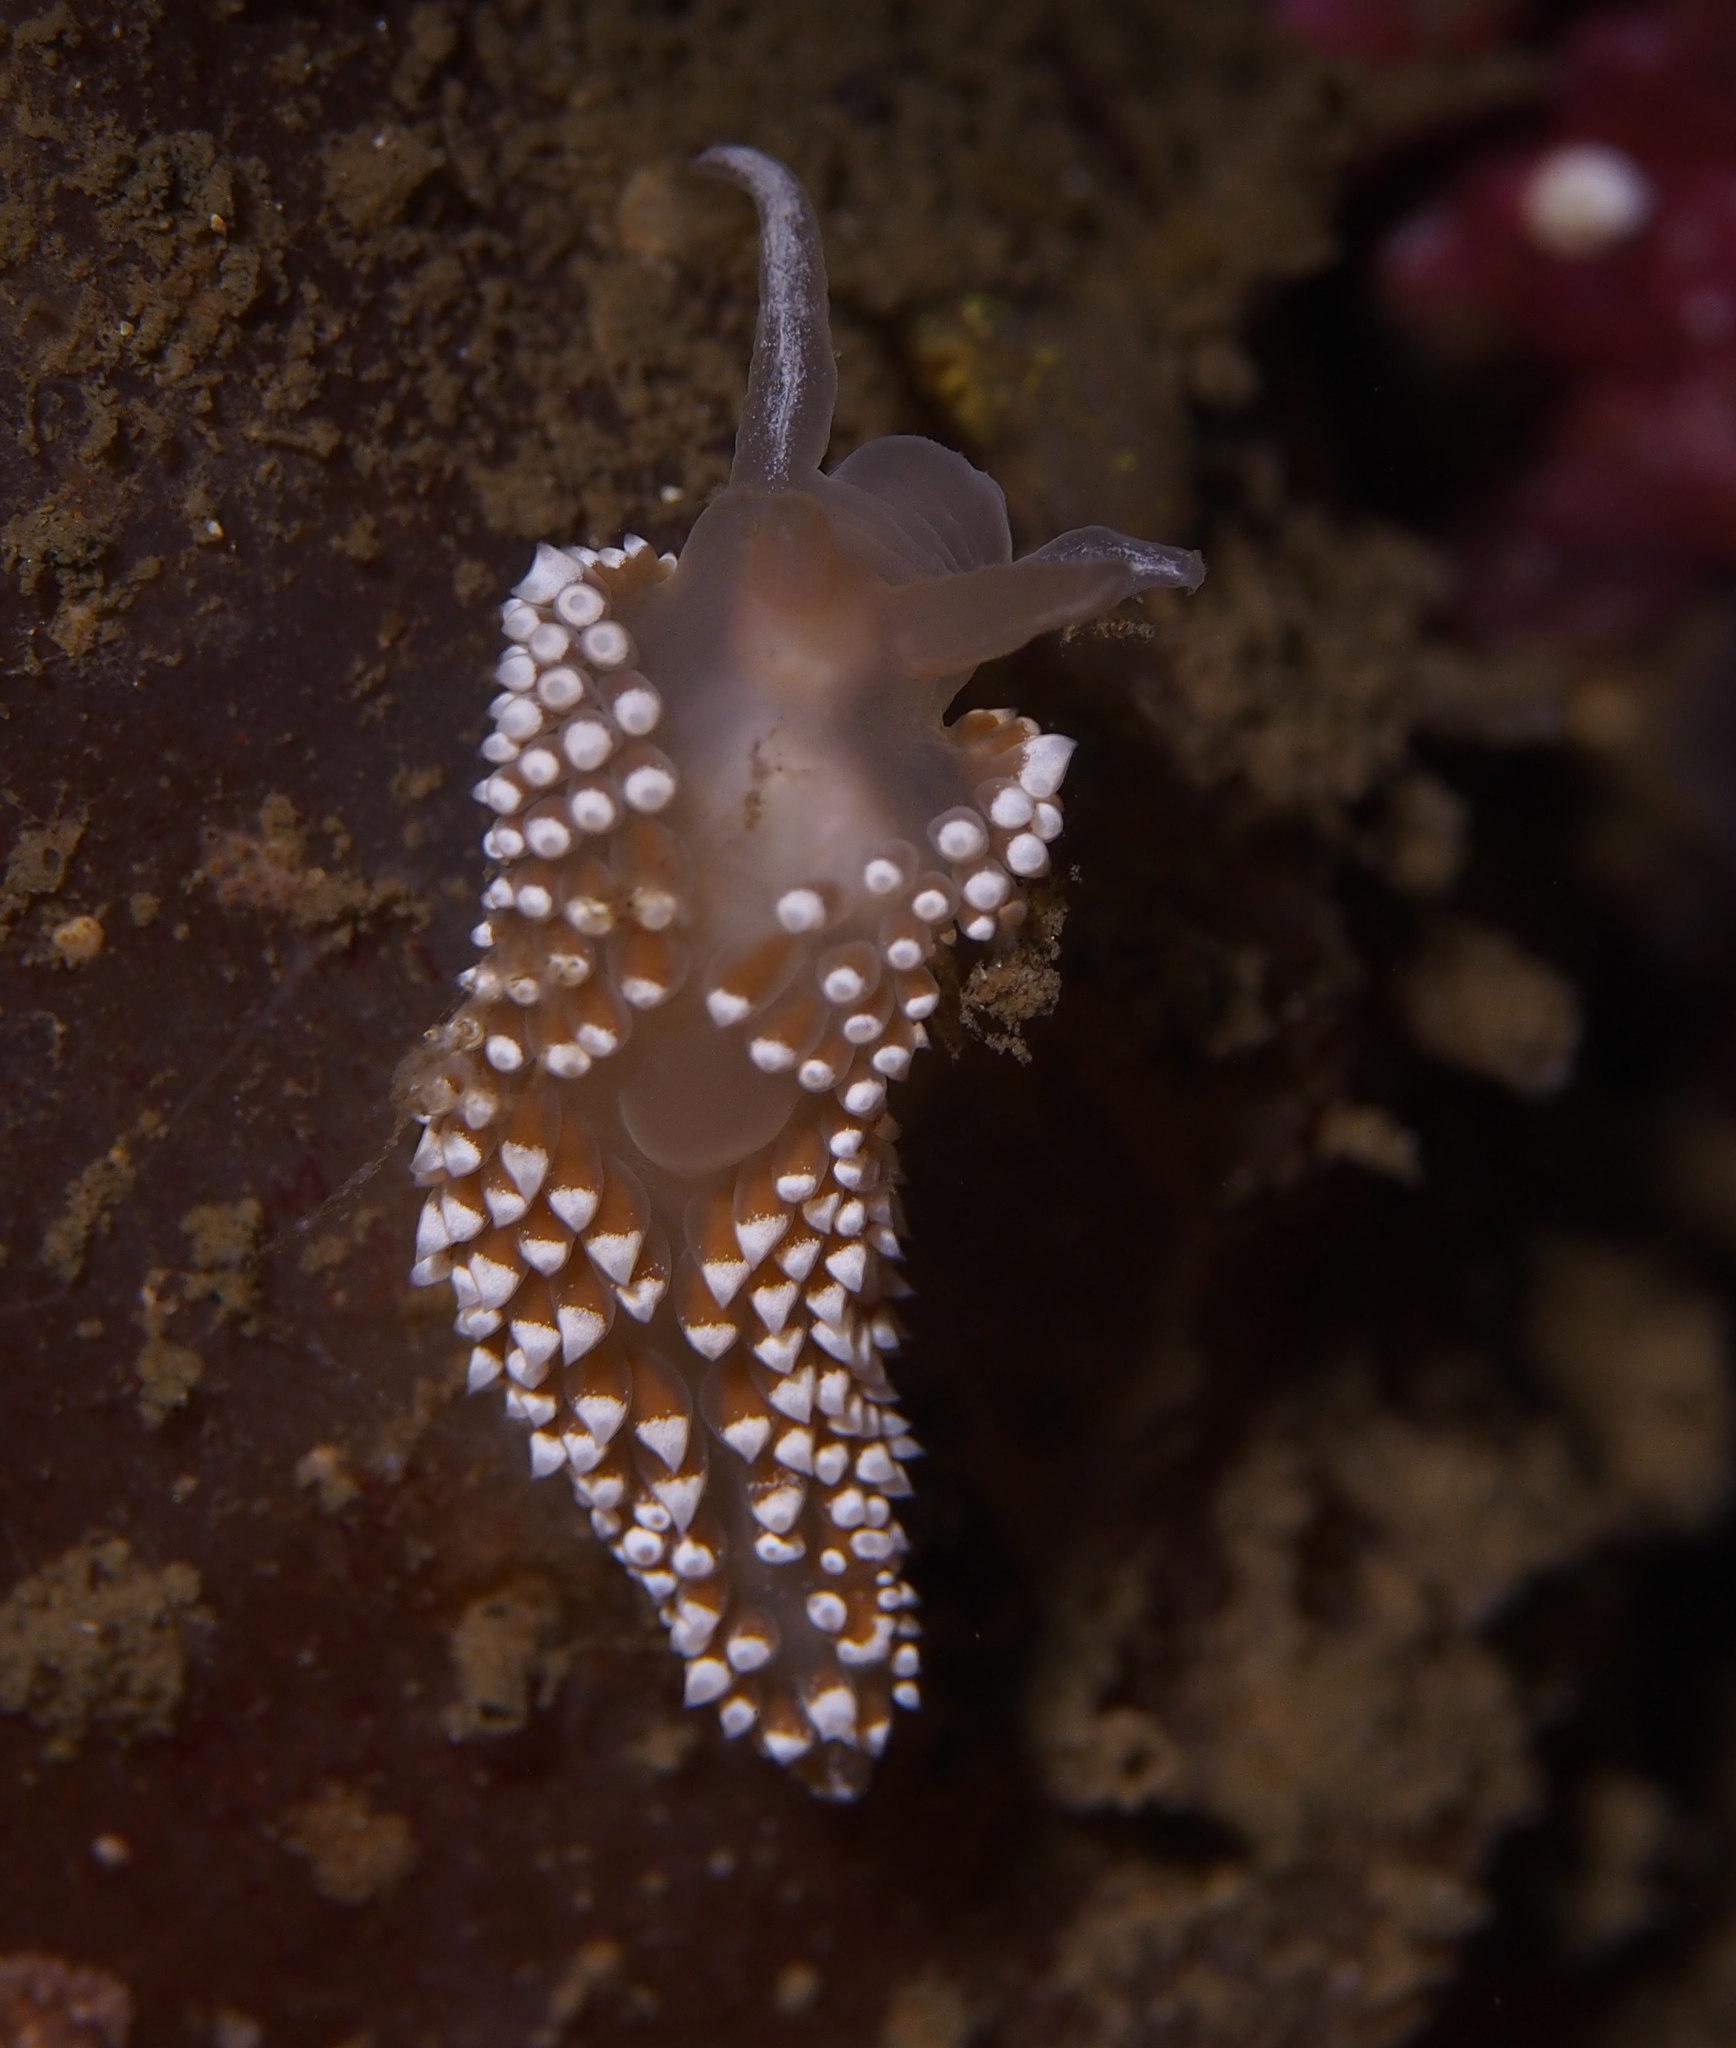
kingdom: Animalia
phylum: Mollusca
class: Gastropoda
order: Nudibranchia
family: Coryphellidae
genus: Coryphella
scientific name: Coryphella verrucosa
